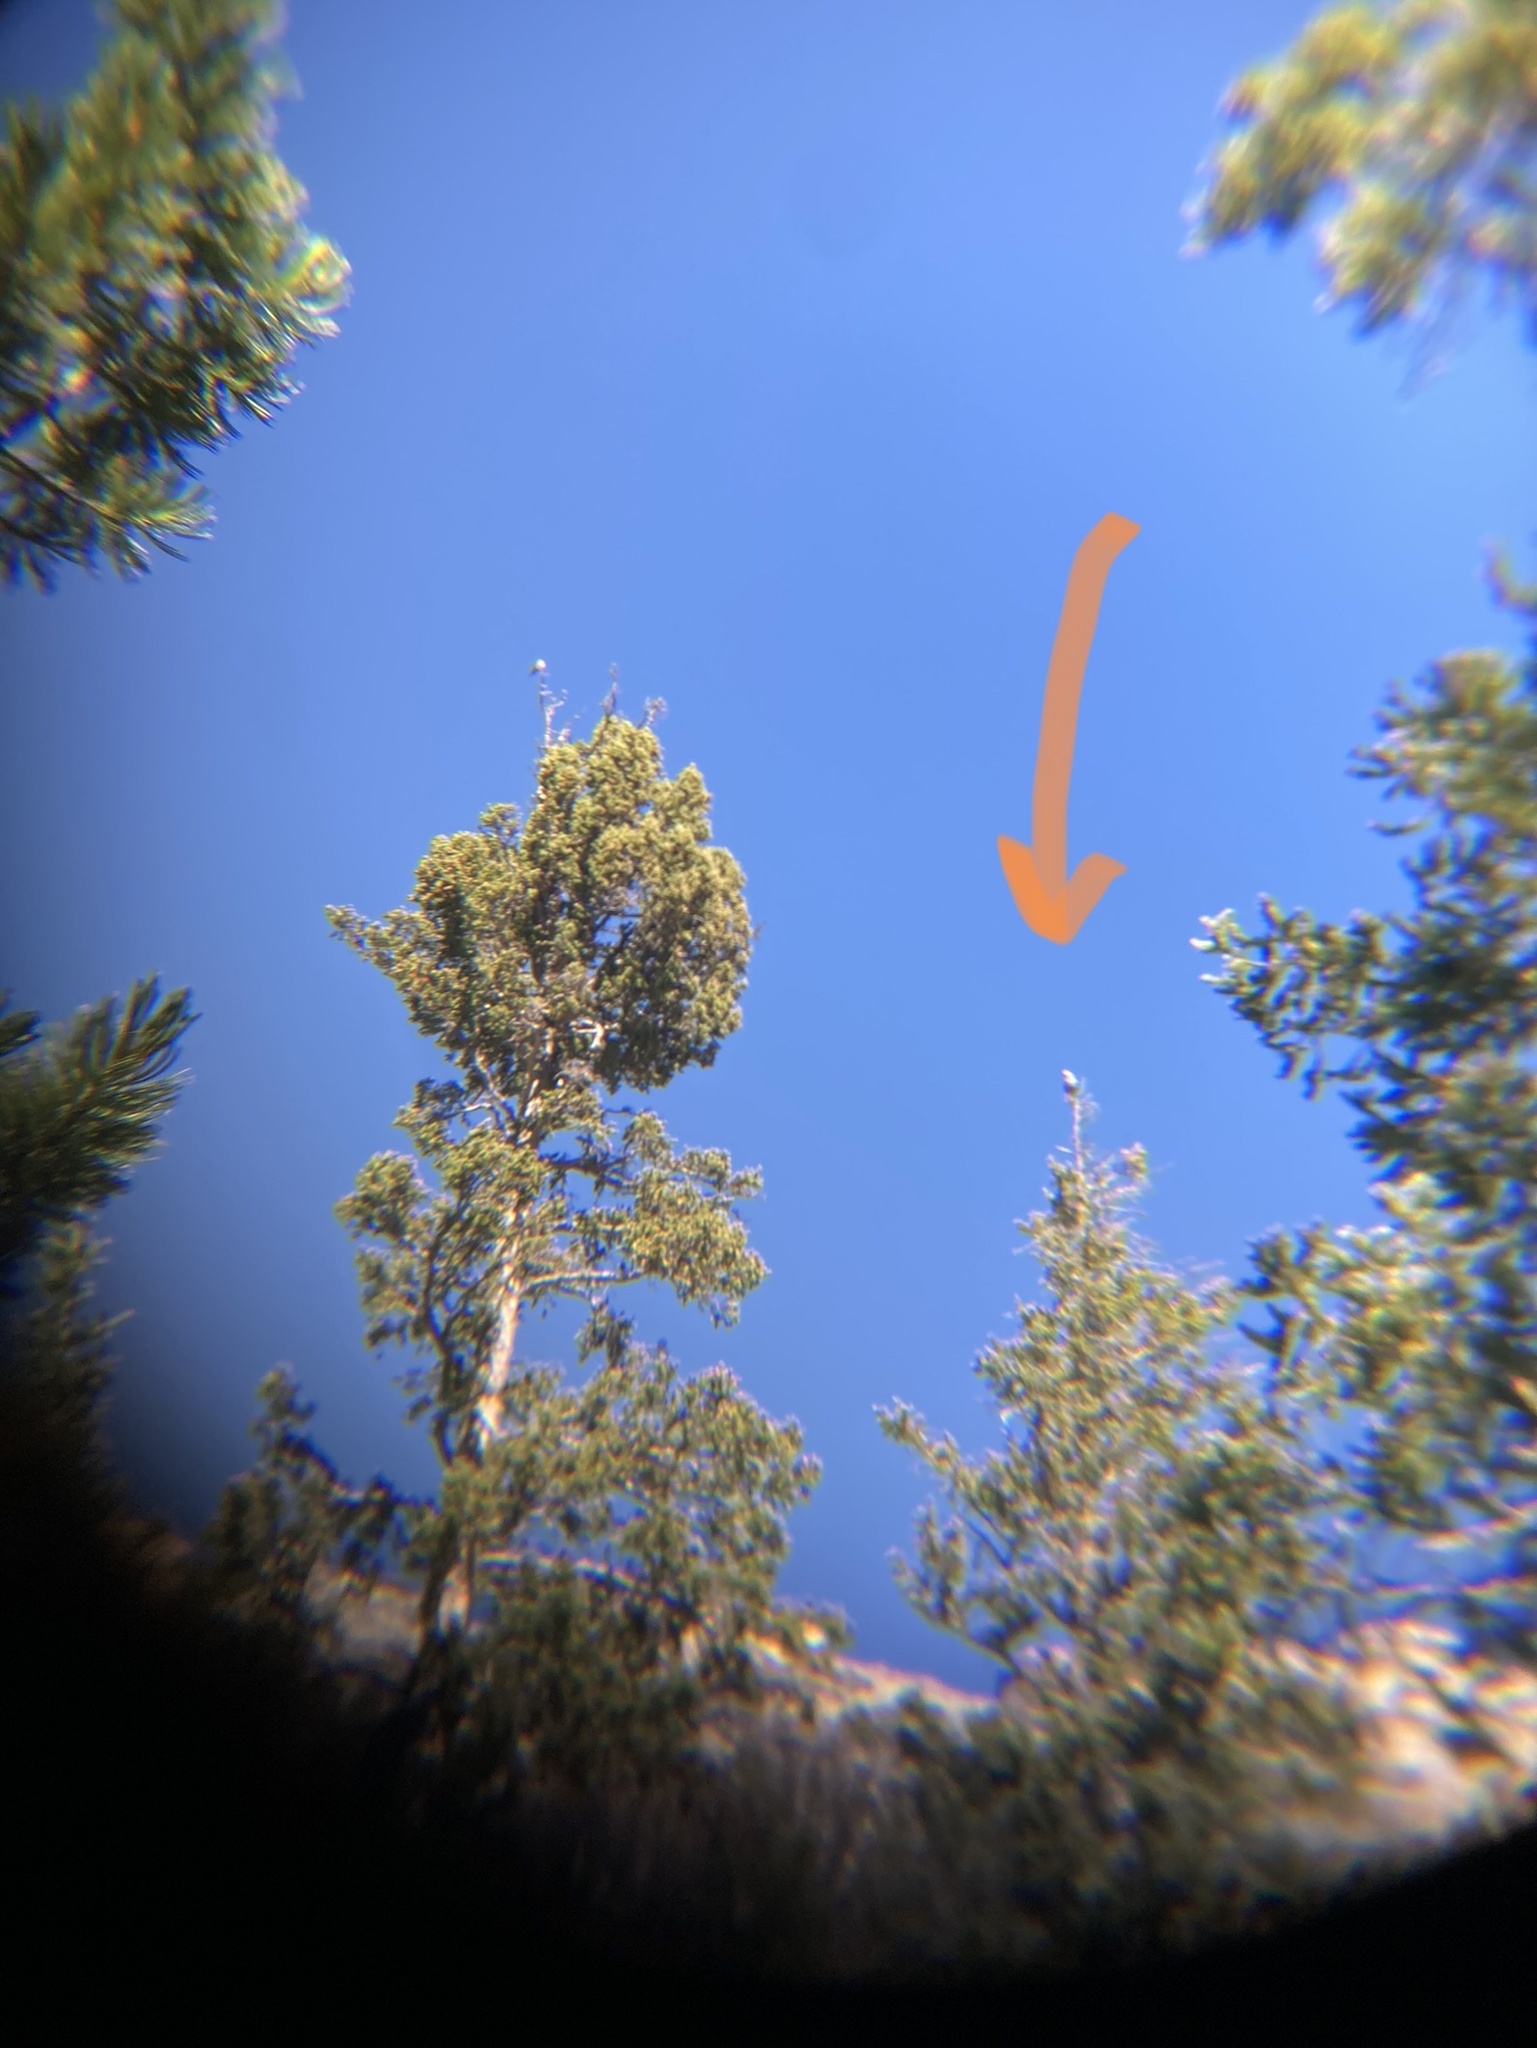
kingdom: Animalia
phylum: Chordata
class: Aves
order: Passeriformes
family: Corvidae
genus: Nucifraga
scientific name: Nucifraga columbiana
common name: Clark's nutcracker
